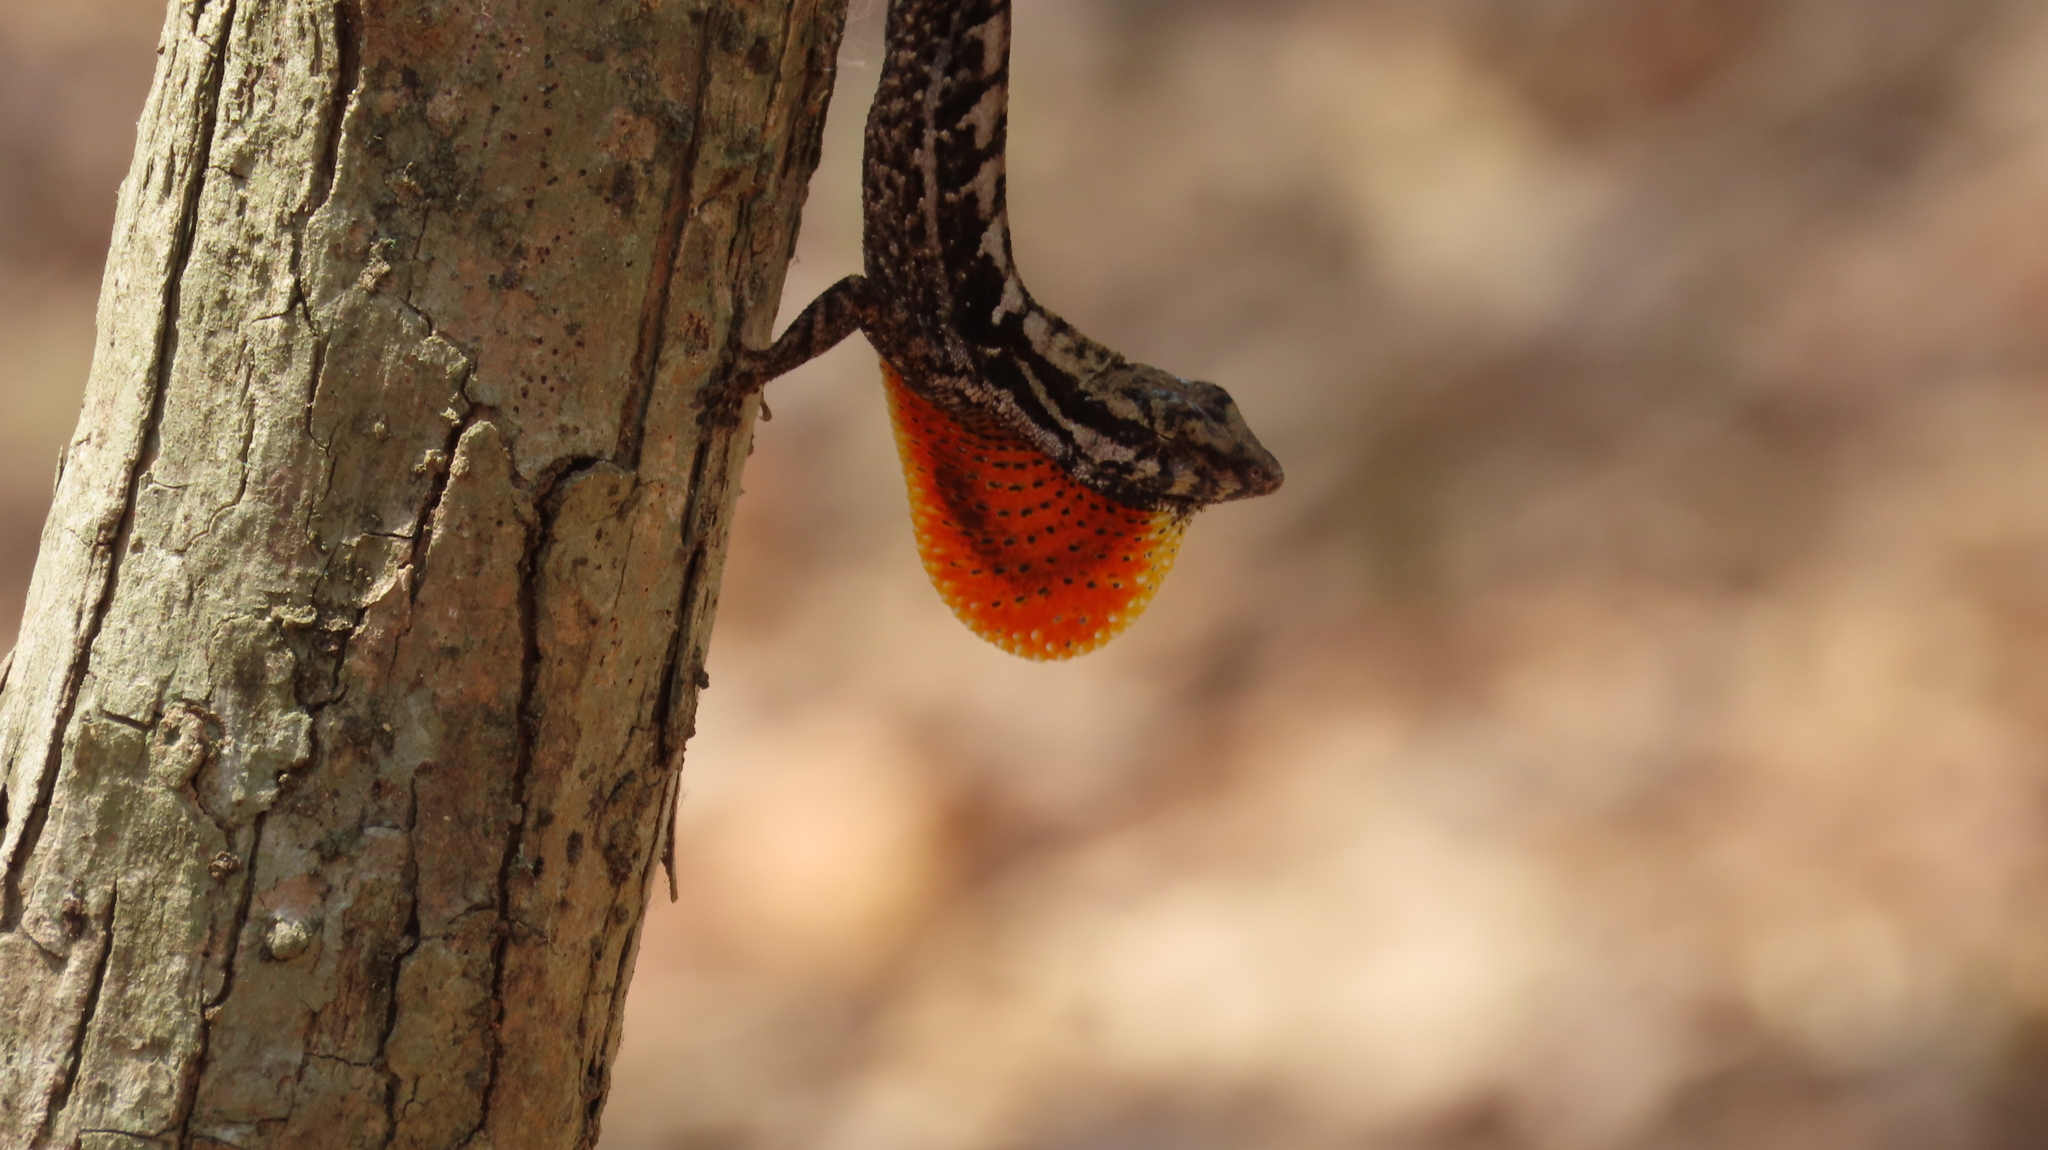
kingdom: Animalia
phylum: Chordata
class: Squamata
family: Dactyloidae
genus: Anolis
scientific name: Anolis mccraniei
